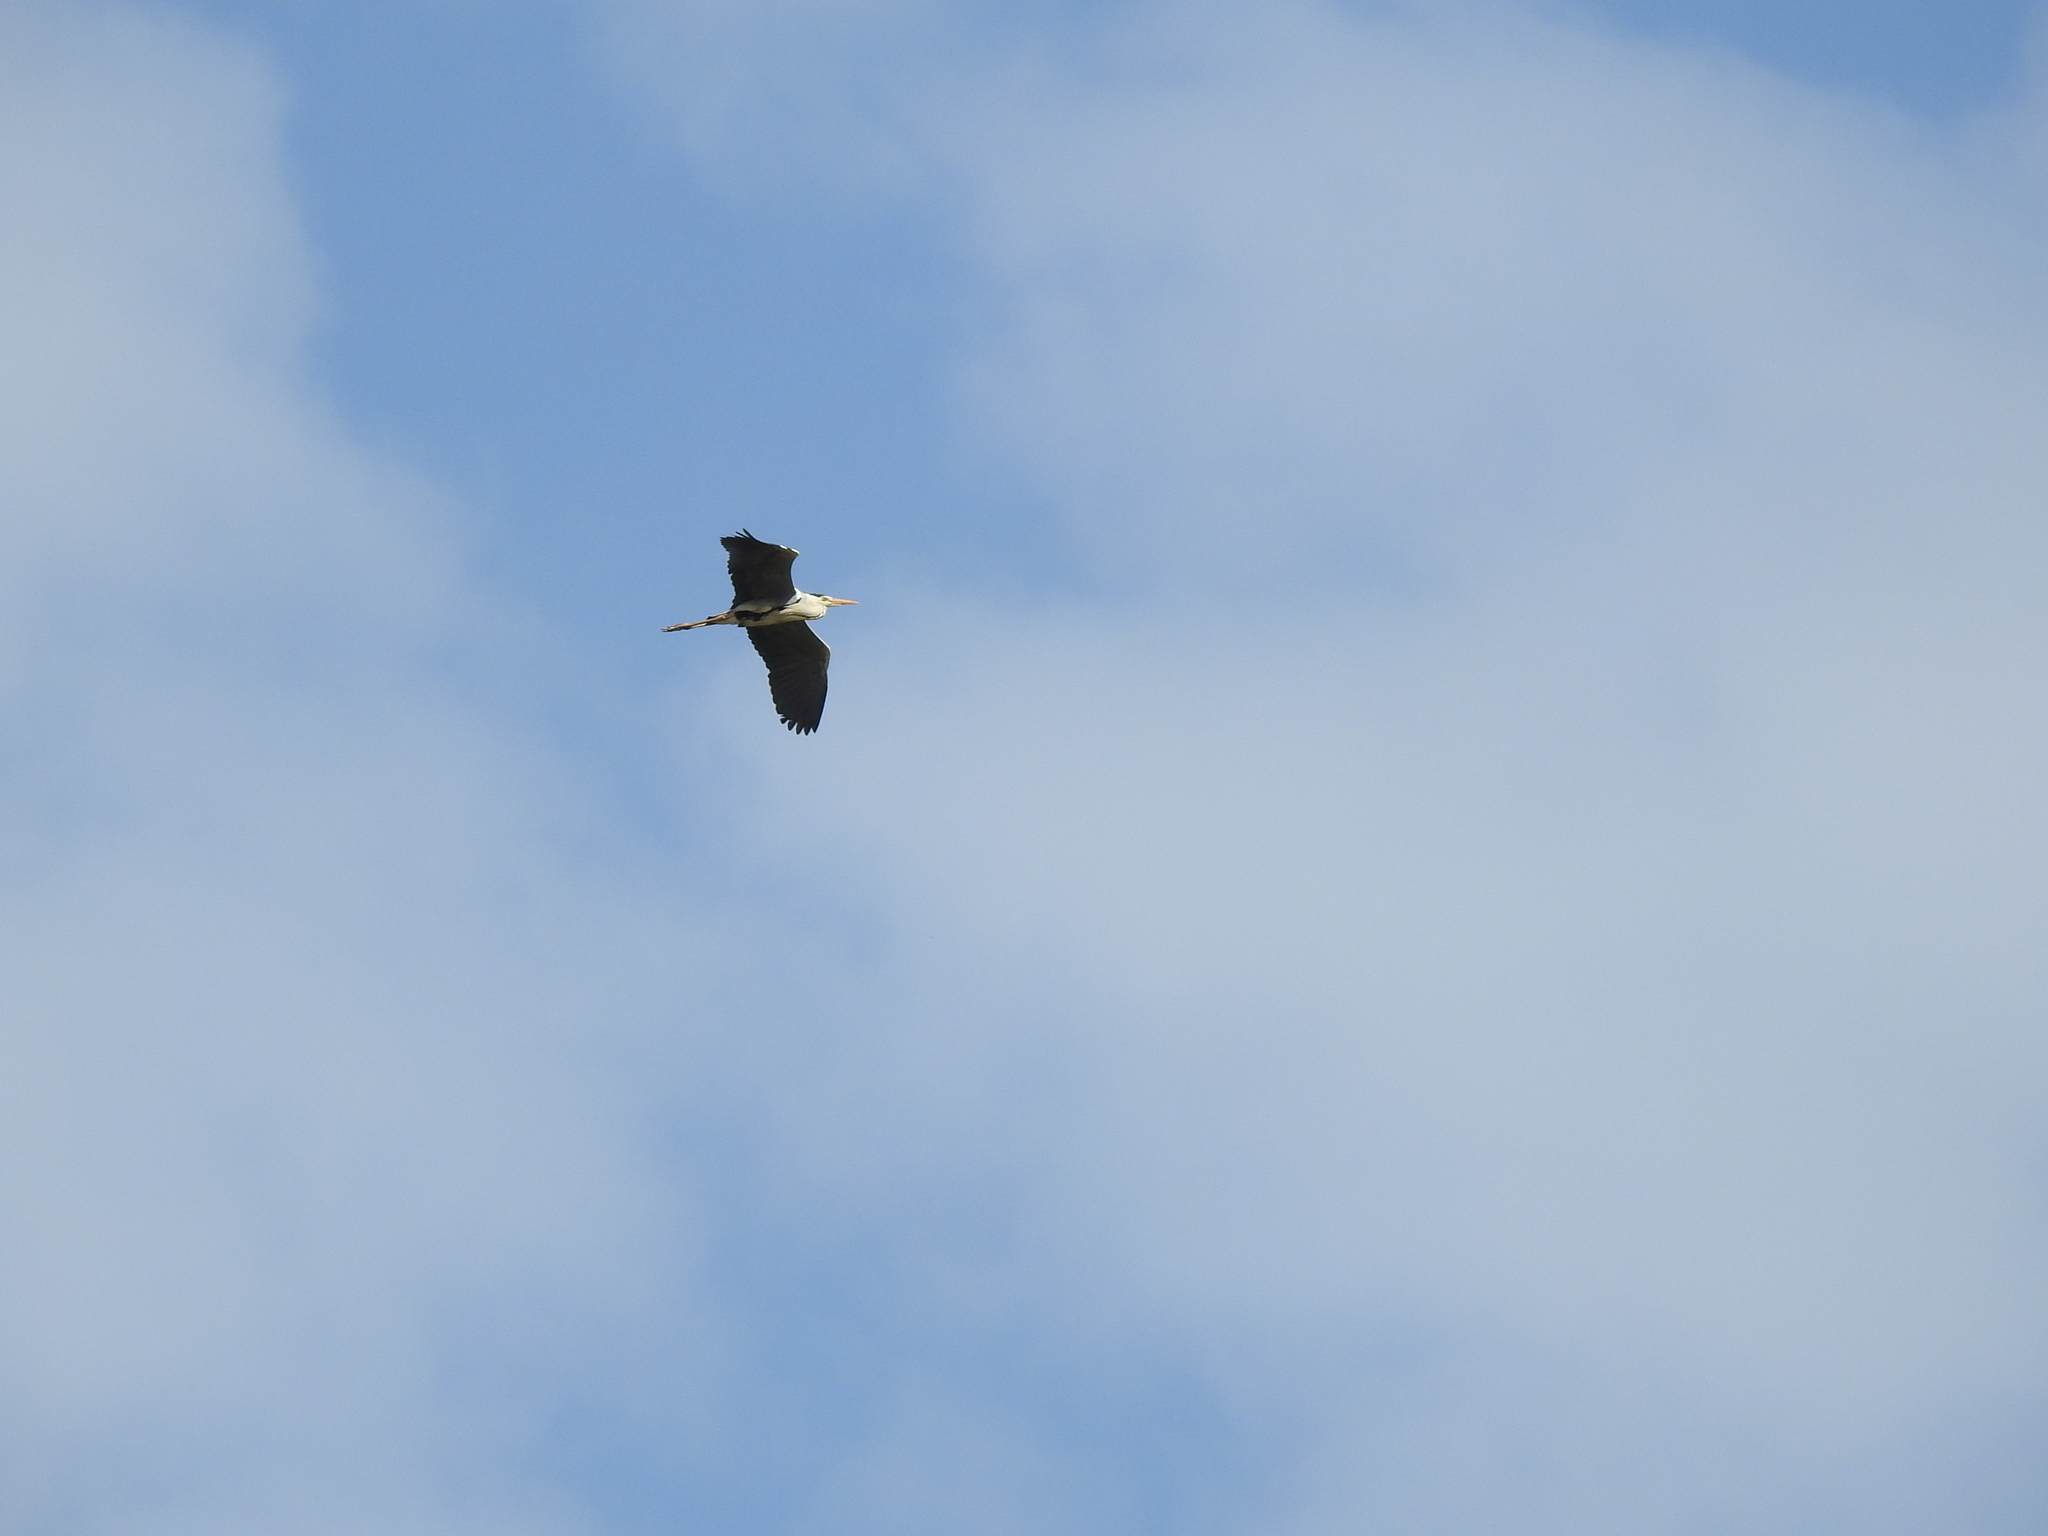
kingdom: Animalia
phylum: Chordata
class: Aves
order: Pelecaniformes
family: Ardeidae
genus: Ardea
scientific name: Ardea cinerea
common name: Grey heron
